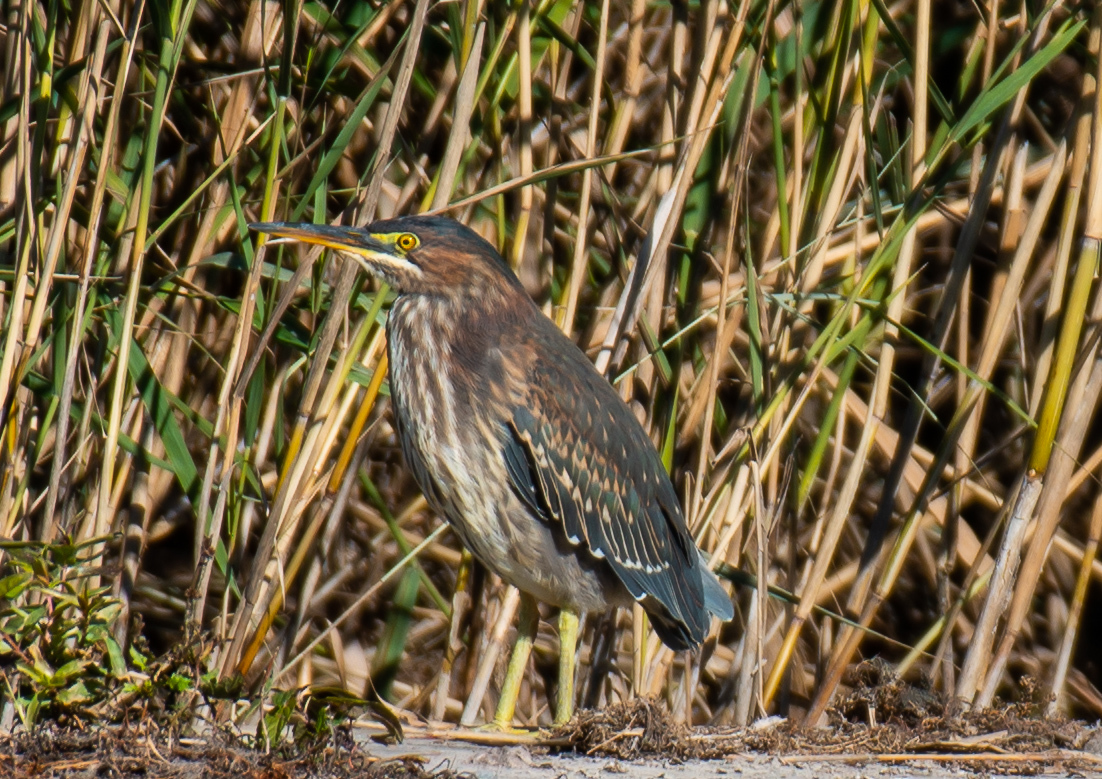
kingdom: Animalia
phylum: Chordata
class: Aves
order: Pelecaniformes
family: Ardeidae
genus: Butorides
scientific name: Butorides virescens
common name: Green heron
